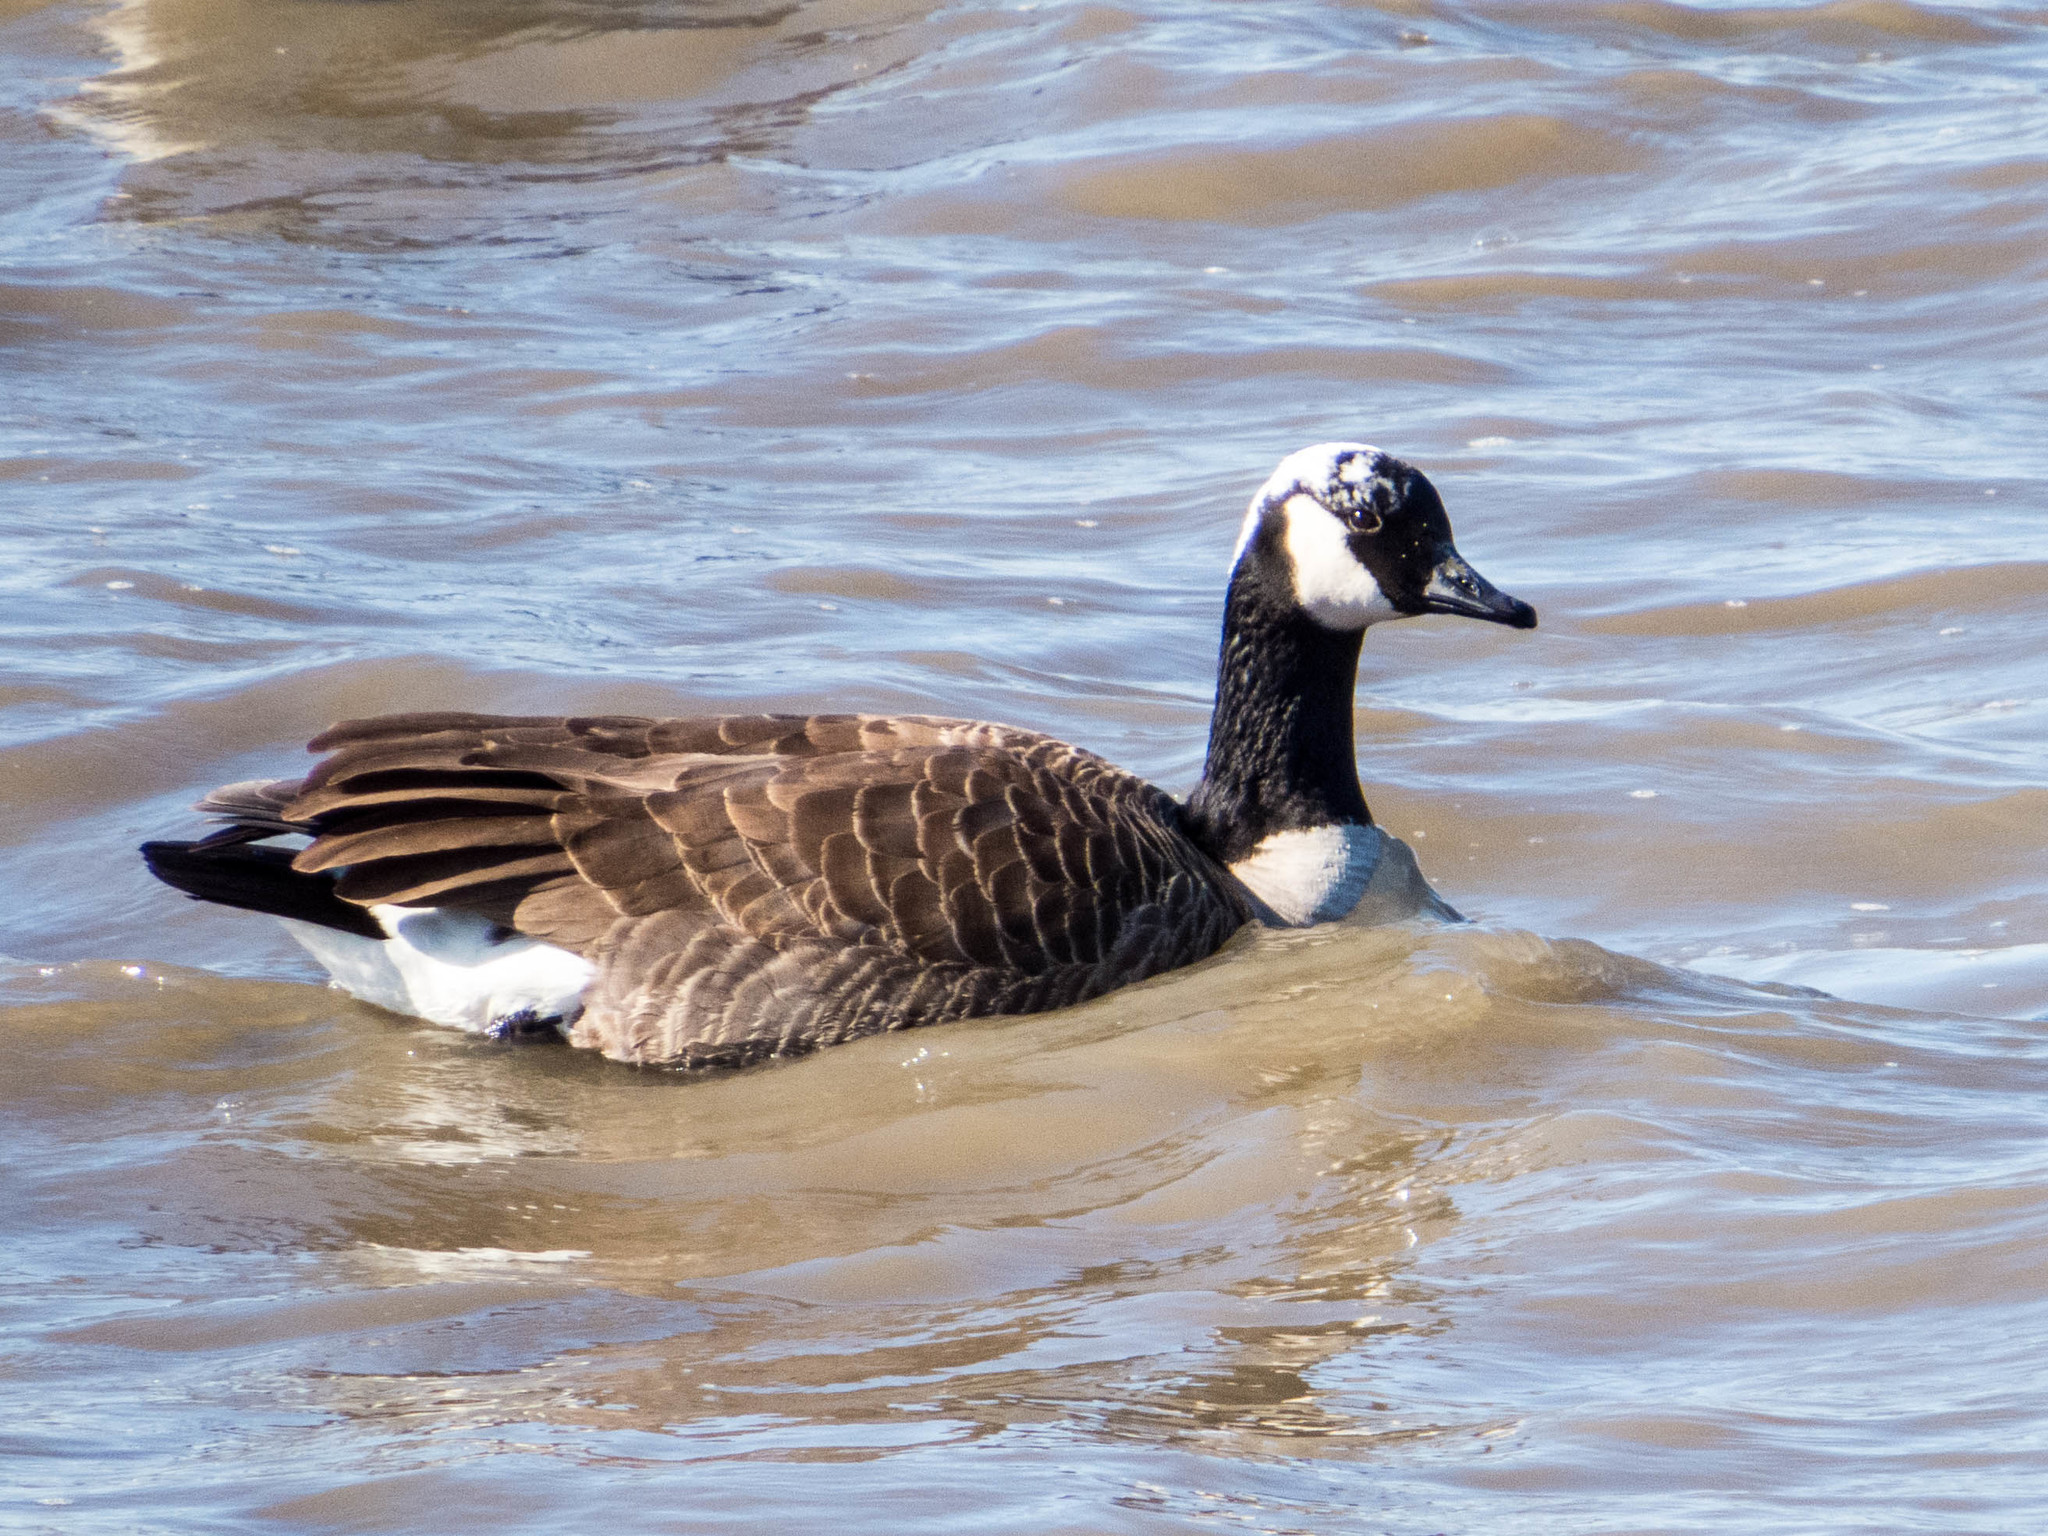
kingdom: Animalia
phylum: Chordata
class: Aves
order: Anseriformes
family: Anatidae
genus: Branta
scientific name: Branta canadensis
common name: Canada goose
